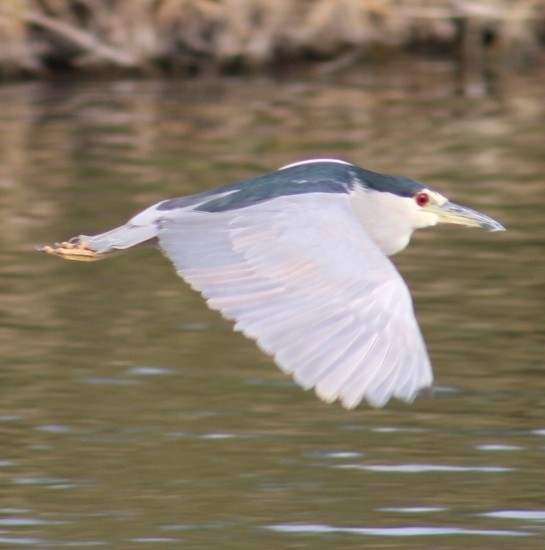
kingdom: Animalia
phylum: Chordata
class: Aves
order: Pelecaniformes
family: Ardeidae
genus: Nycticorax
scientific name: Nycticorax nycticorax
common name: Black-crowned night heron
